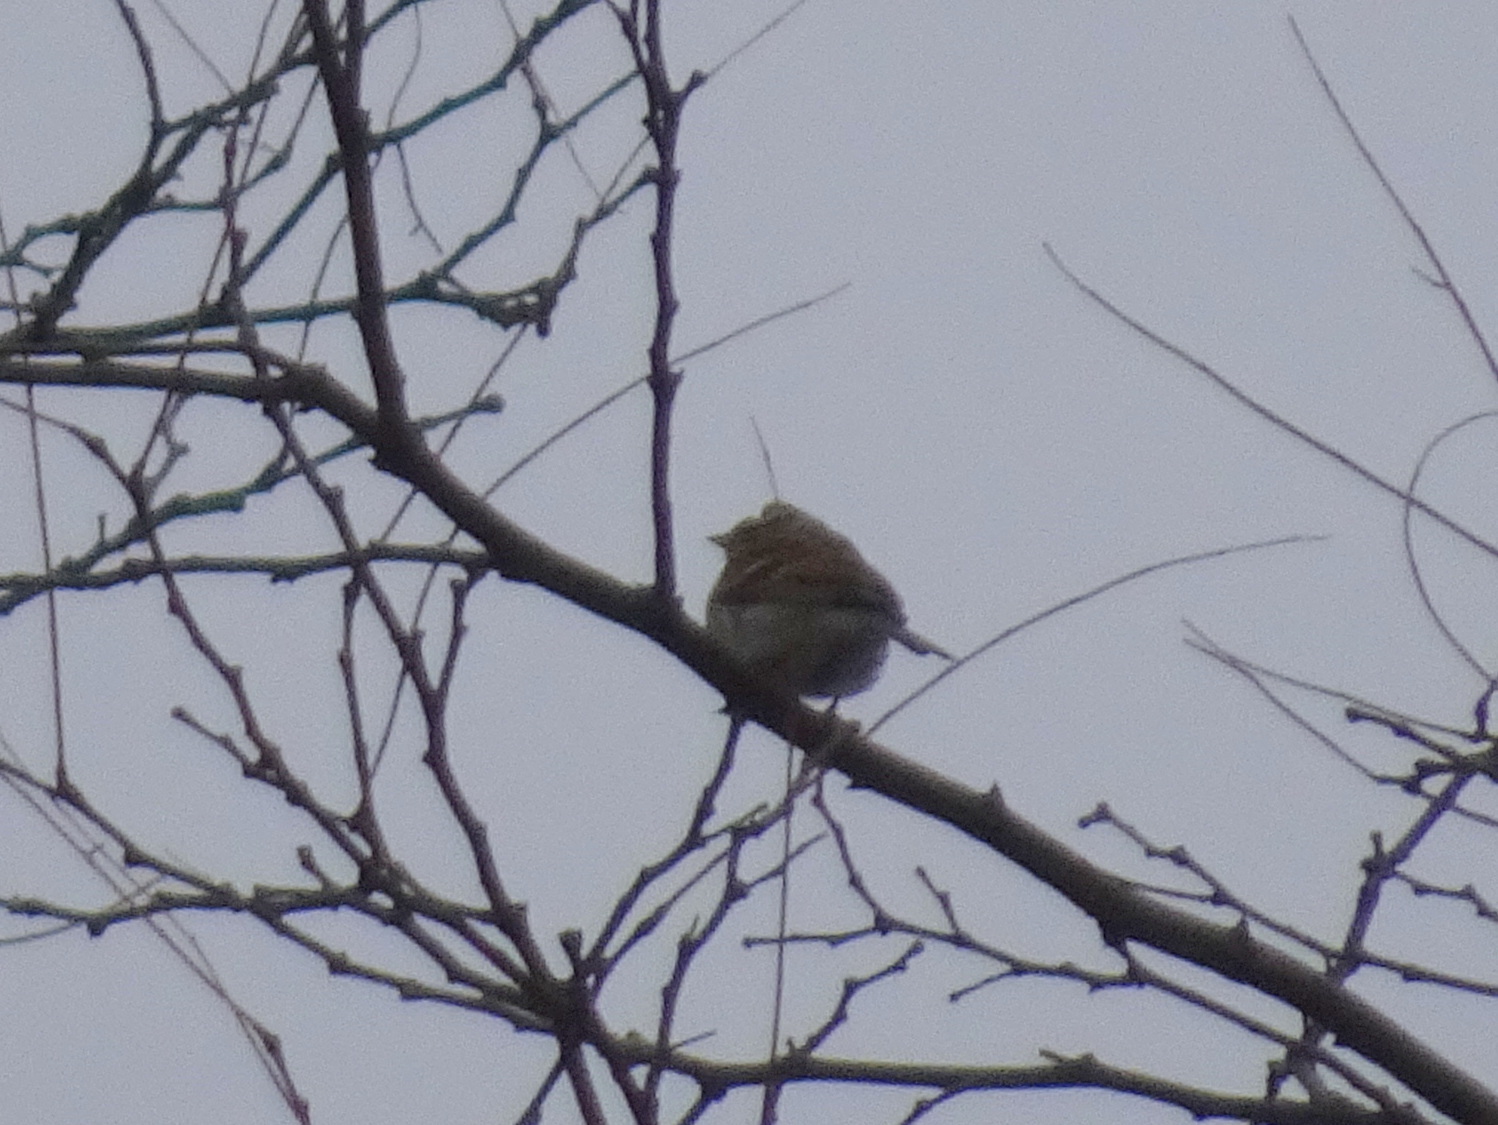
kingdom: Animalia
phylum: Chordata
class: Aves
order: Passeriformes
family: Passerellidae
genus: Spizella
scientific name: Spizella passerina
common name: Chipping sparrow
